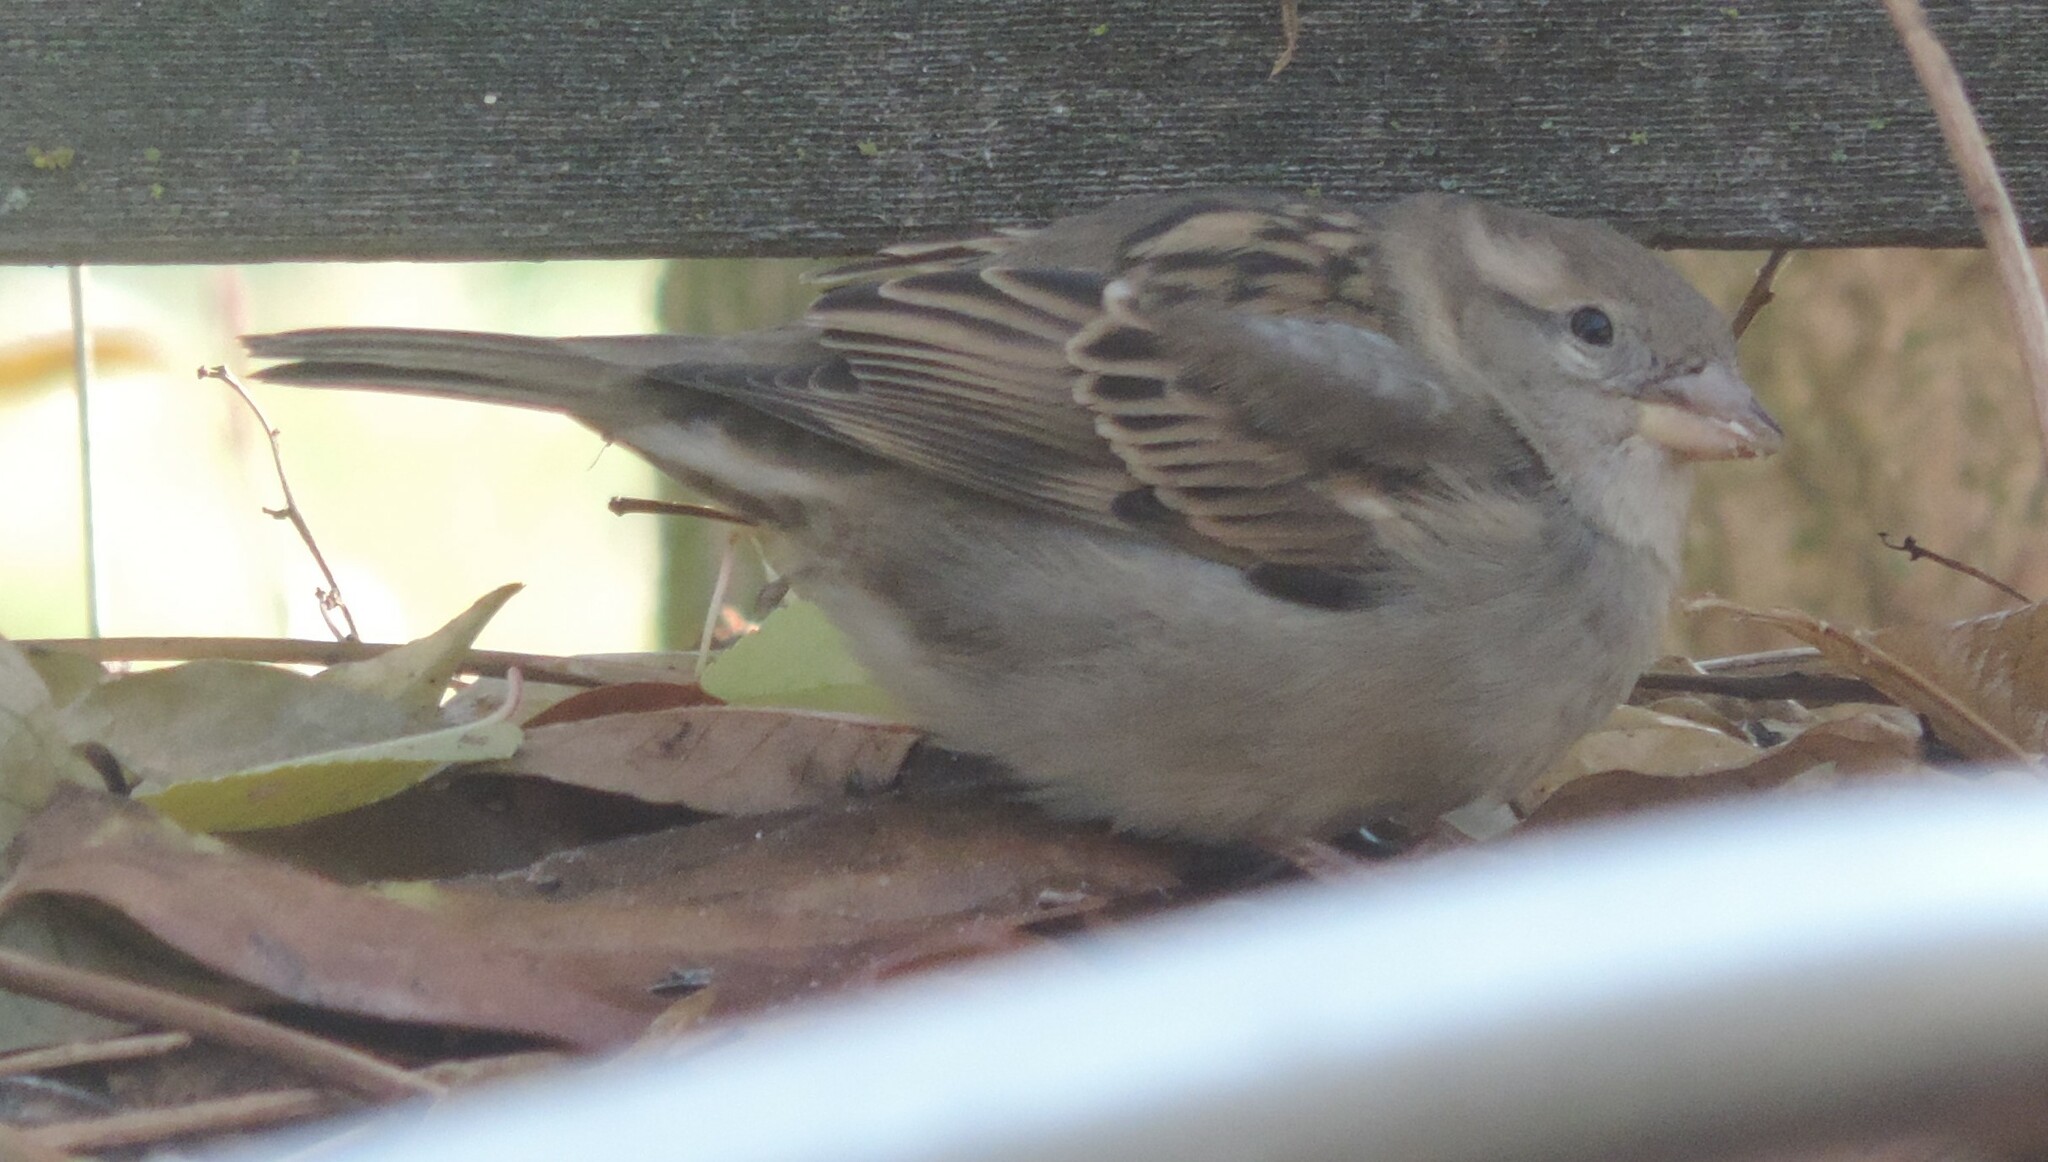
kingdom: Animalia
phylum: Chordata
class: Aves
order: Passeriformes
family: Passeridae
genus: Passer
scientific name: Passer domesticus
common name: House sparrow
